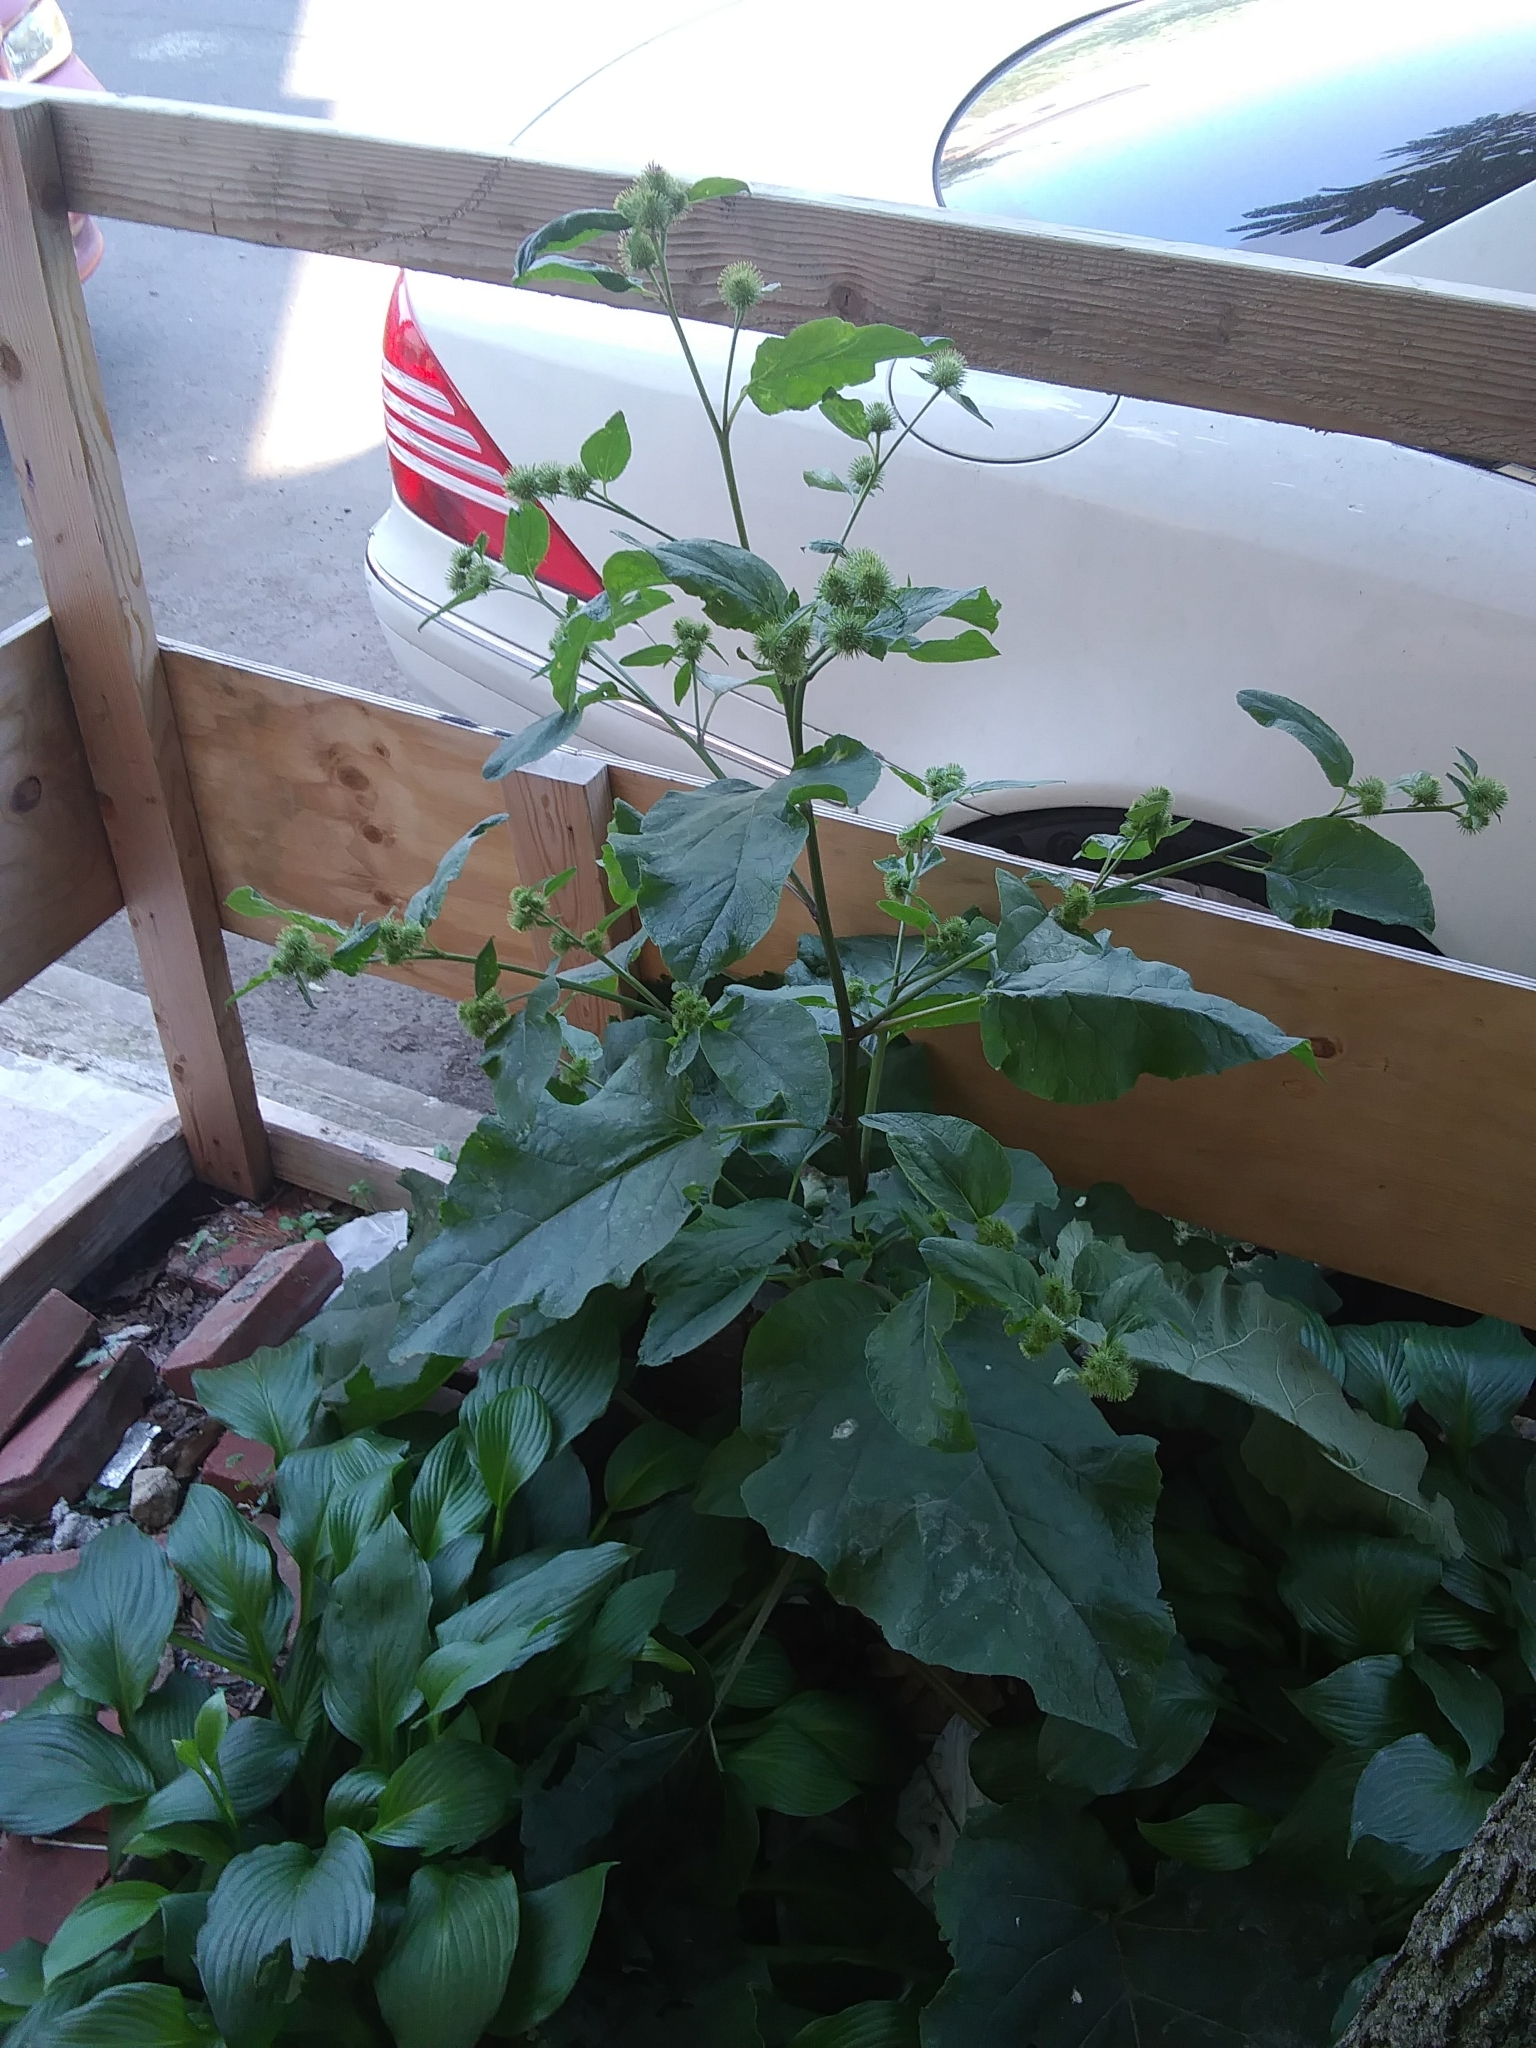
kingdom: Plantae
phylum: Tracheophyta
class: Magnoliopsida
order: Asterales
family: Asteraceae
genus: Arctium
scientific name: Arctium lappa
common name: Greater burdock
